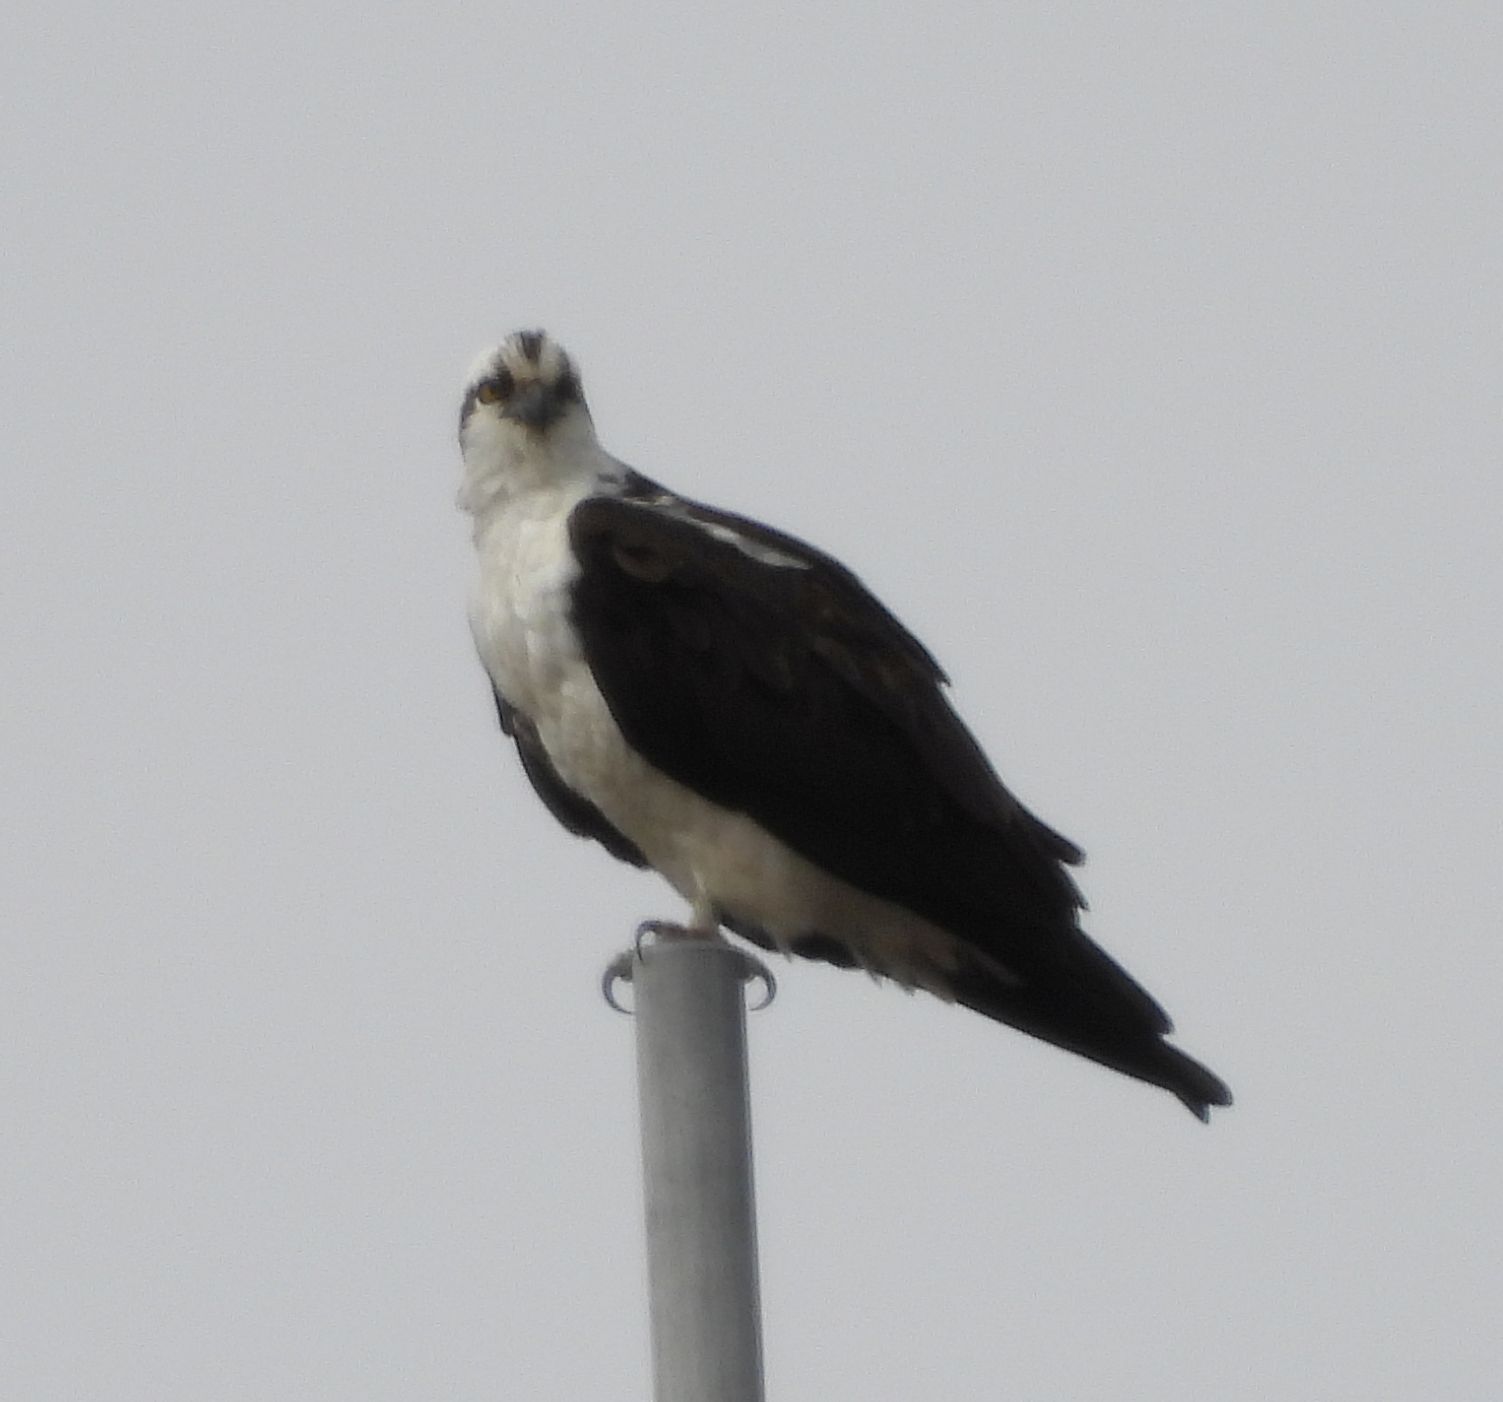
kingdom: Animalia
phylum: Chordata
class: Aves
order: Accipitriformes
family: Pandionidae
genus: Pandion
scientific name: Pandion haliaetus
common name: Osprey
